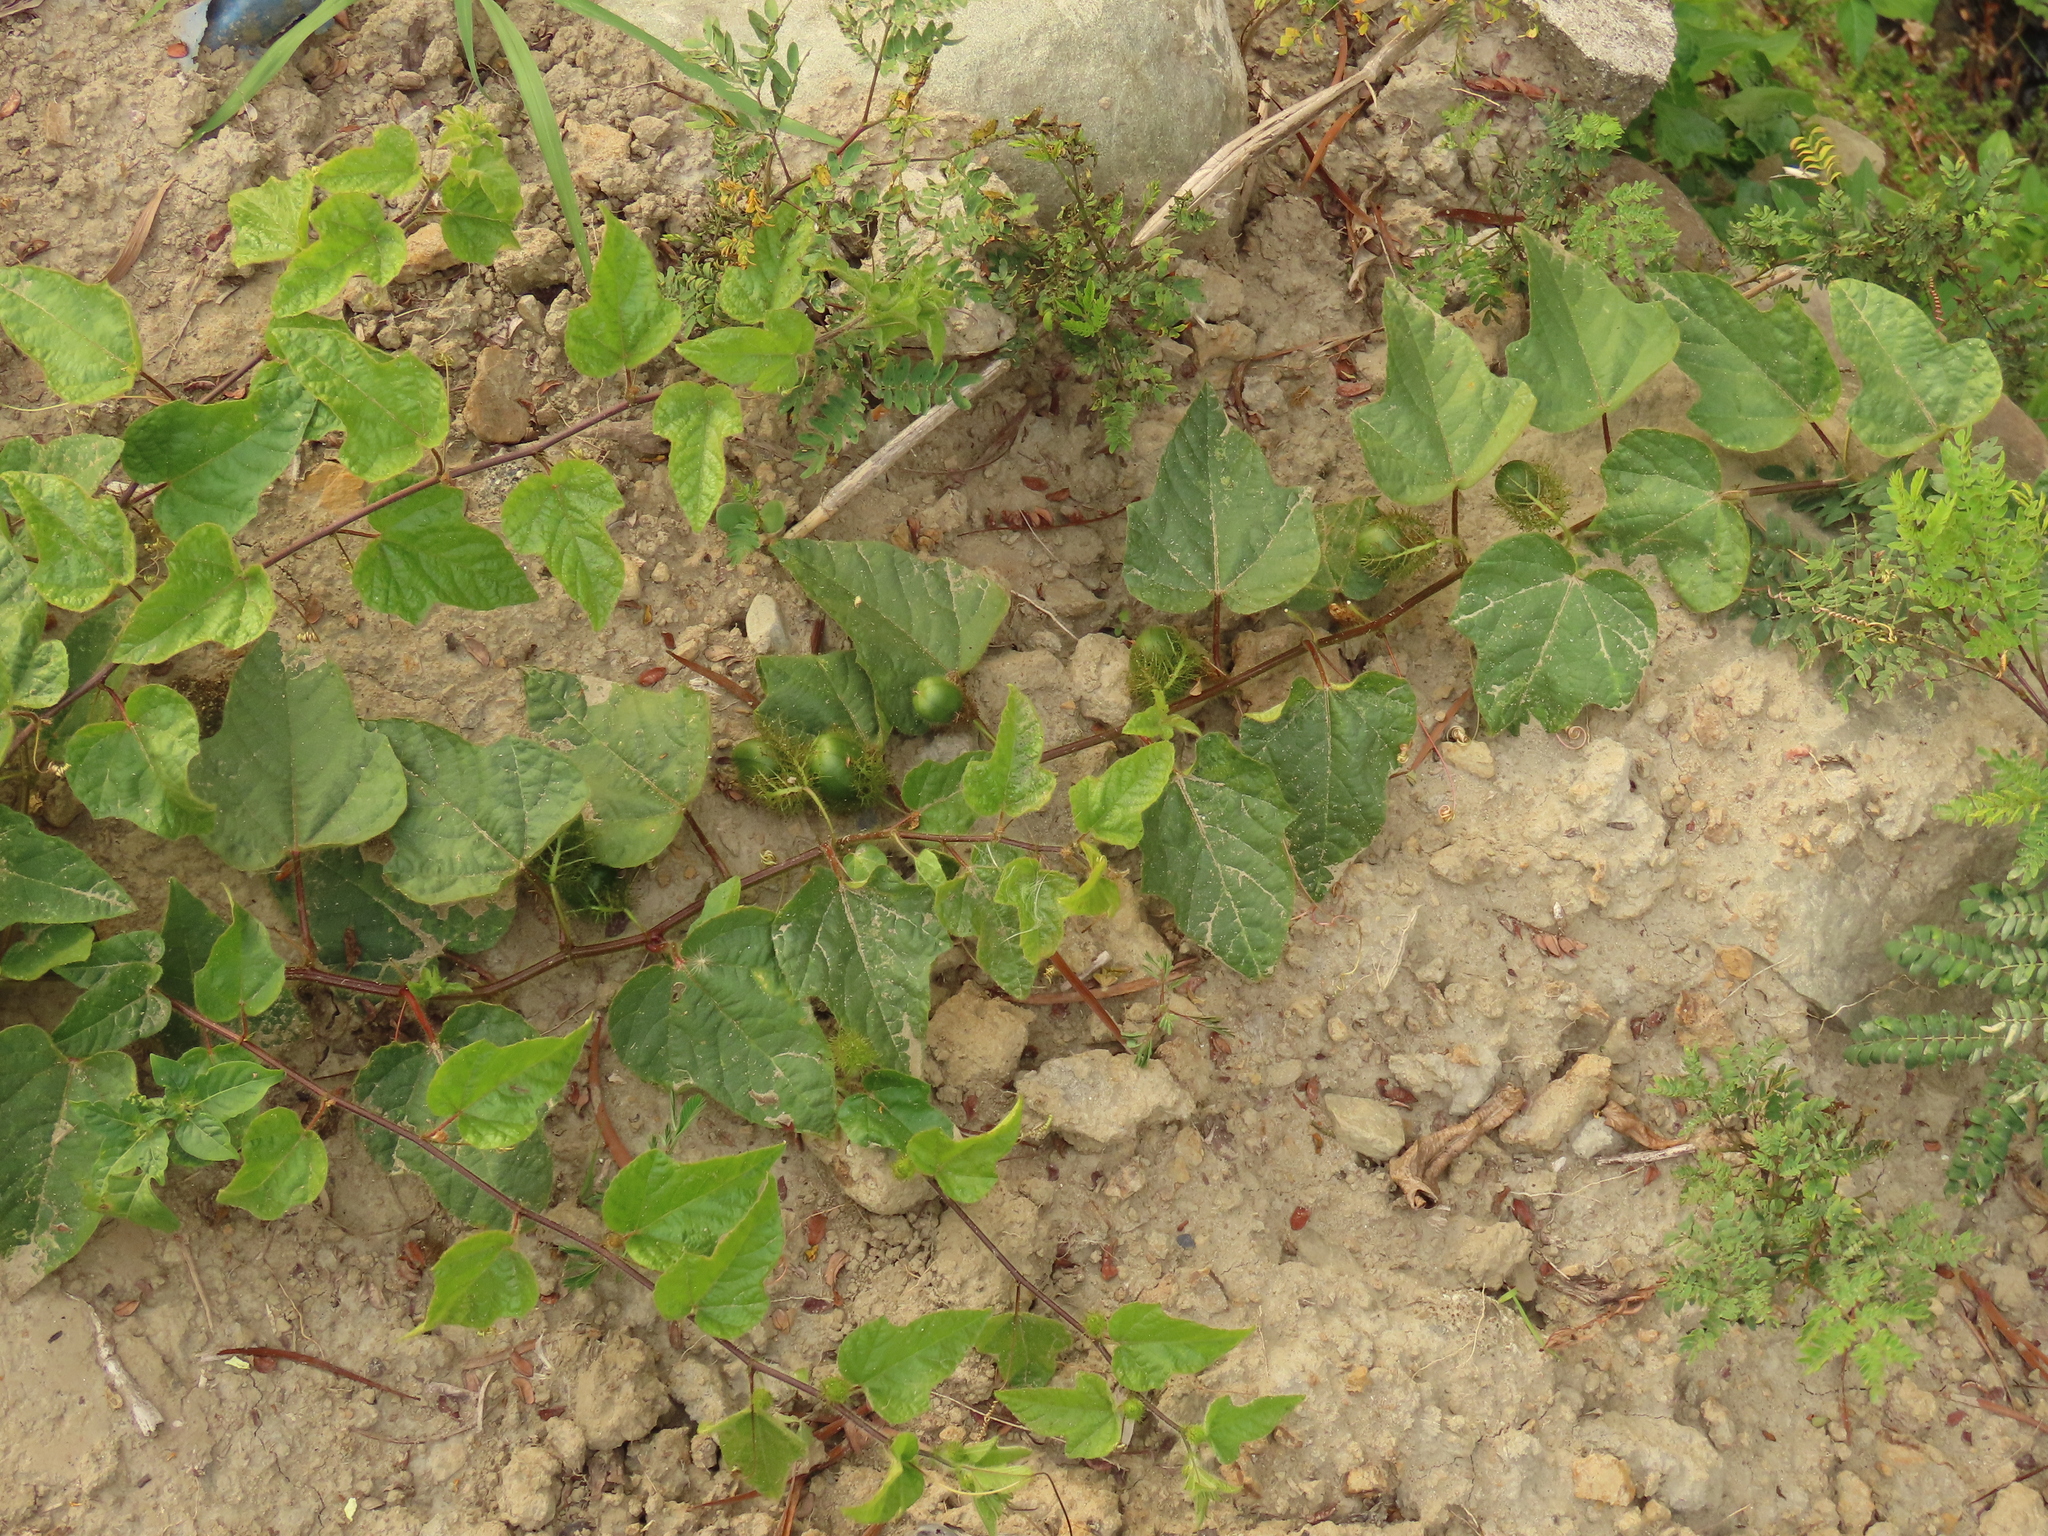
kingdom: Plantae
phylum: Tracheophyta
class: Magnoliopsida
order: Malpighiales
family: Passifloraceae
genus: Passiflora
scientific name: Passiflora foetida
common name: Fetid passionflower
